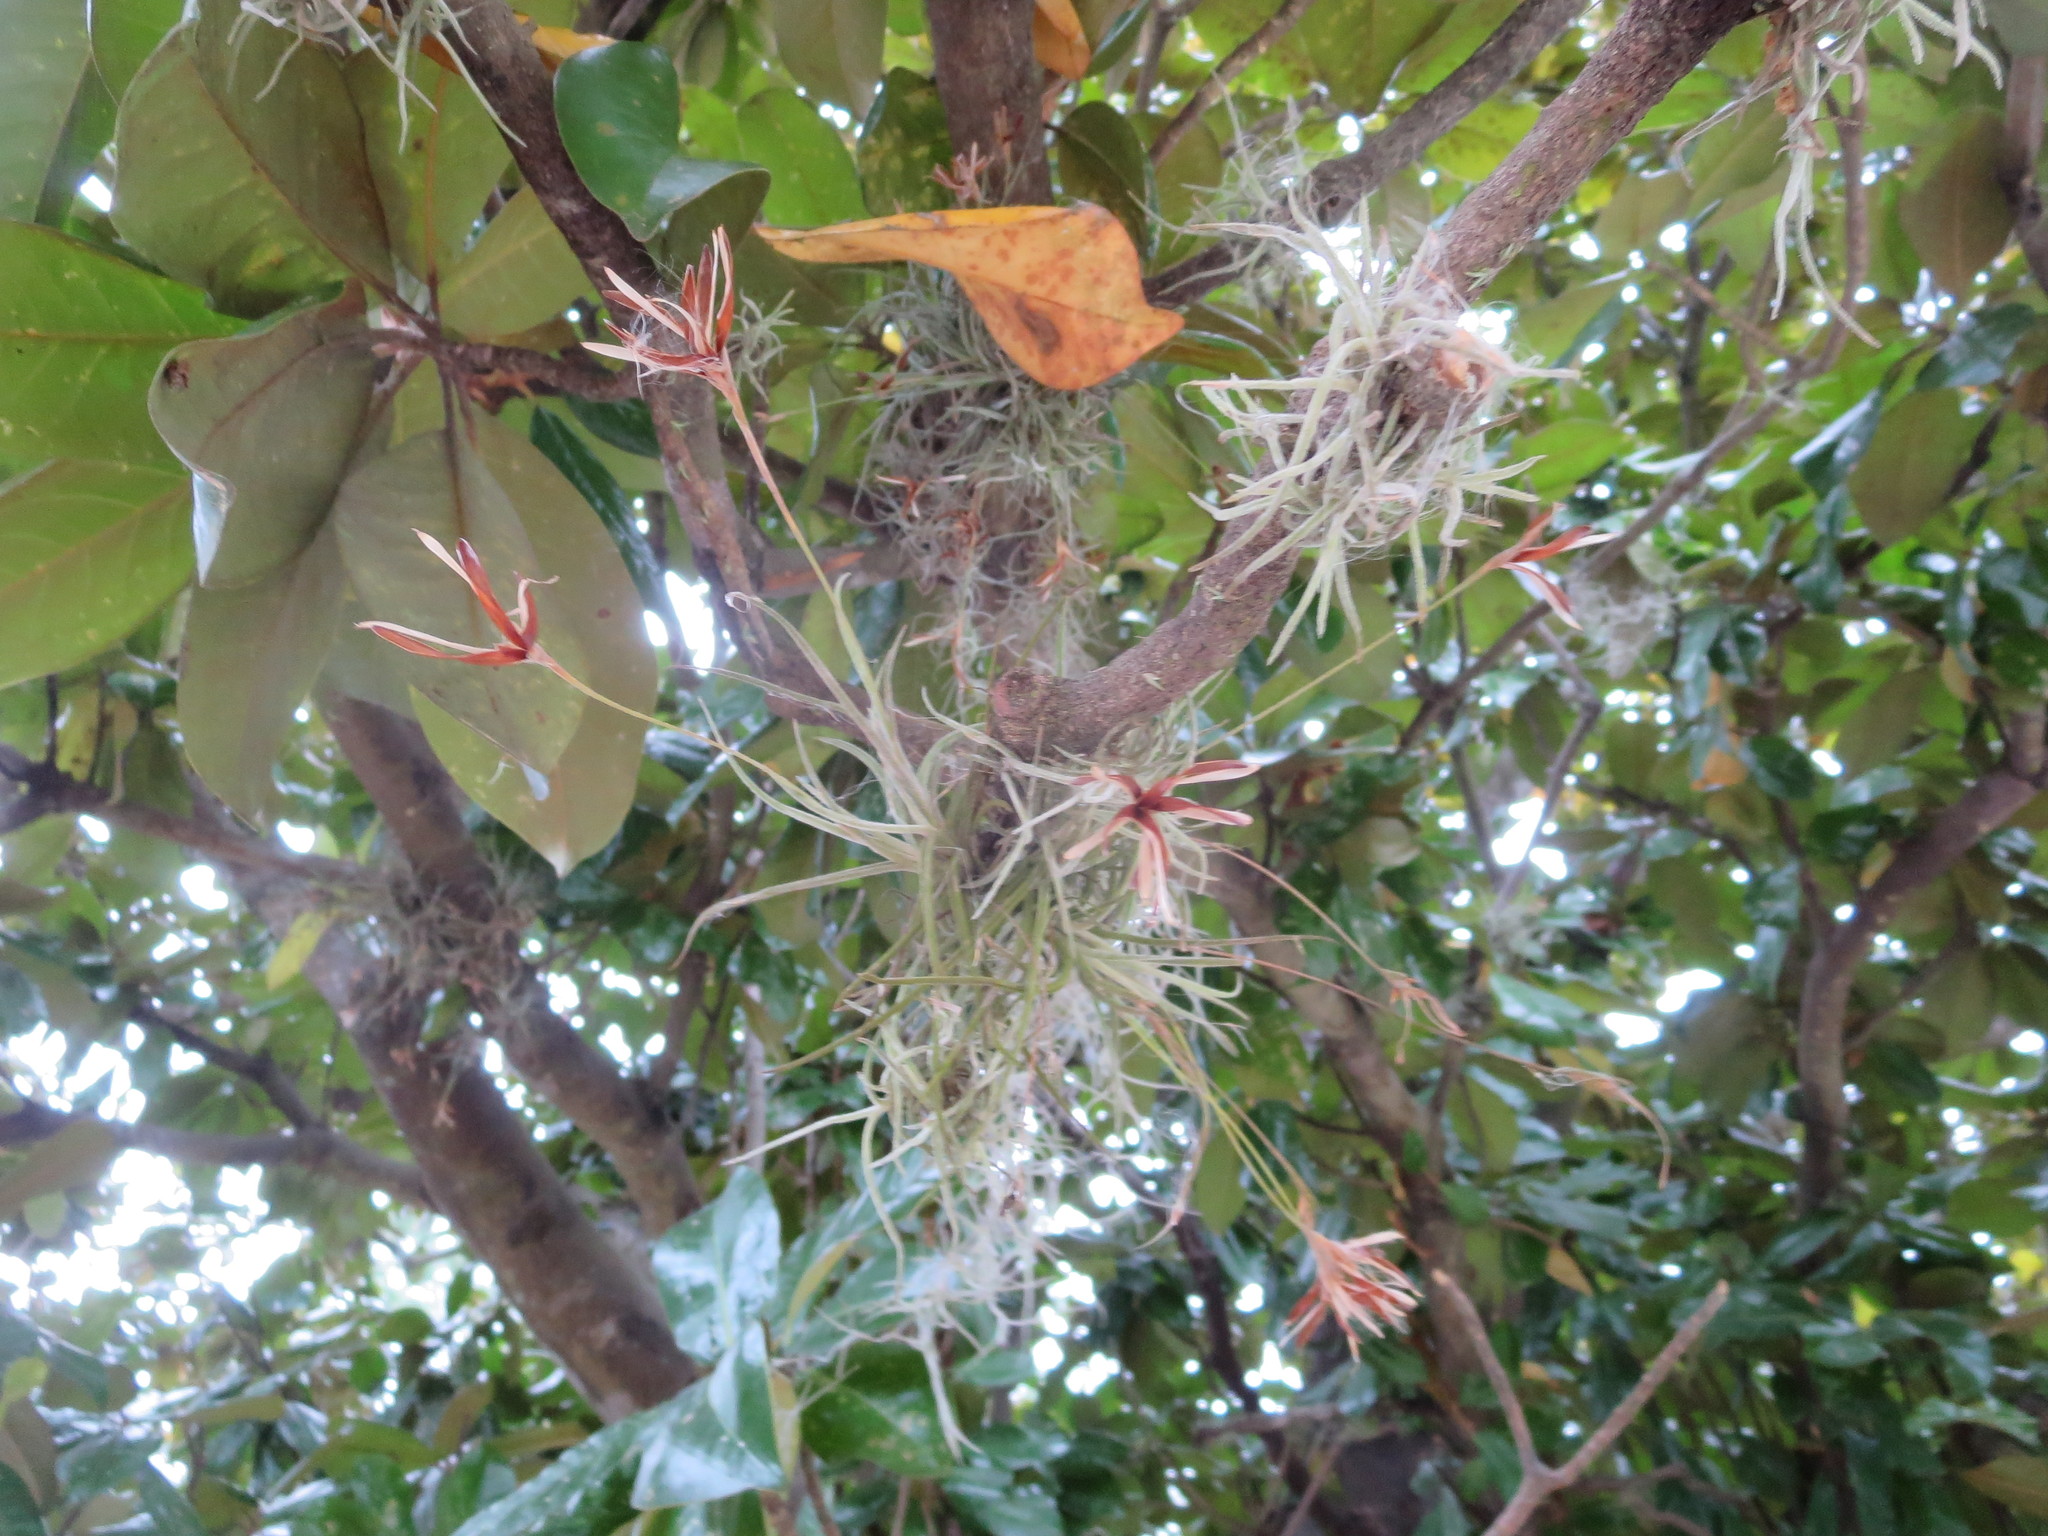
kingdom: Plantae
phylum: Tracheophyta
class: Liliopsida
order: Poales
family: Bromeliaceae
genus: Tillandsia
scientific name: Tillandsia recurvata
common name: Small ballmoss
